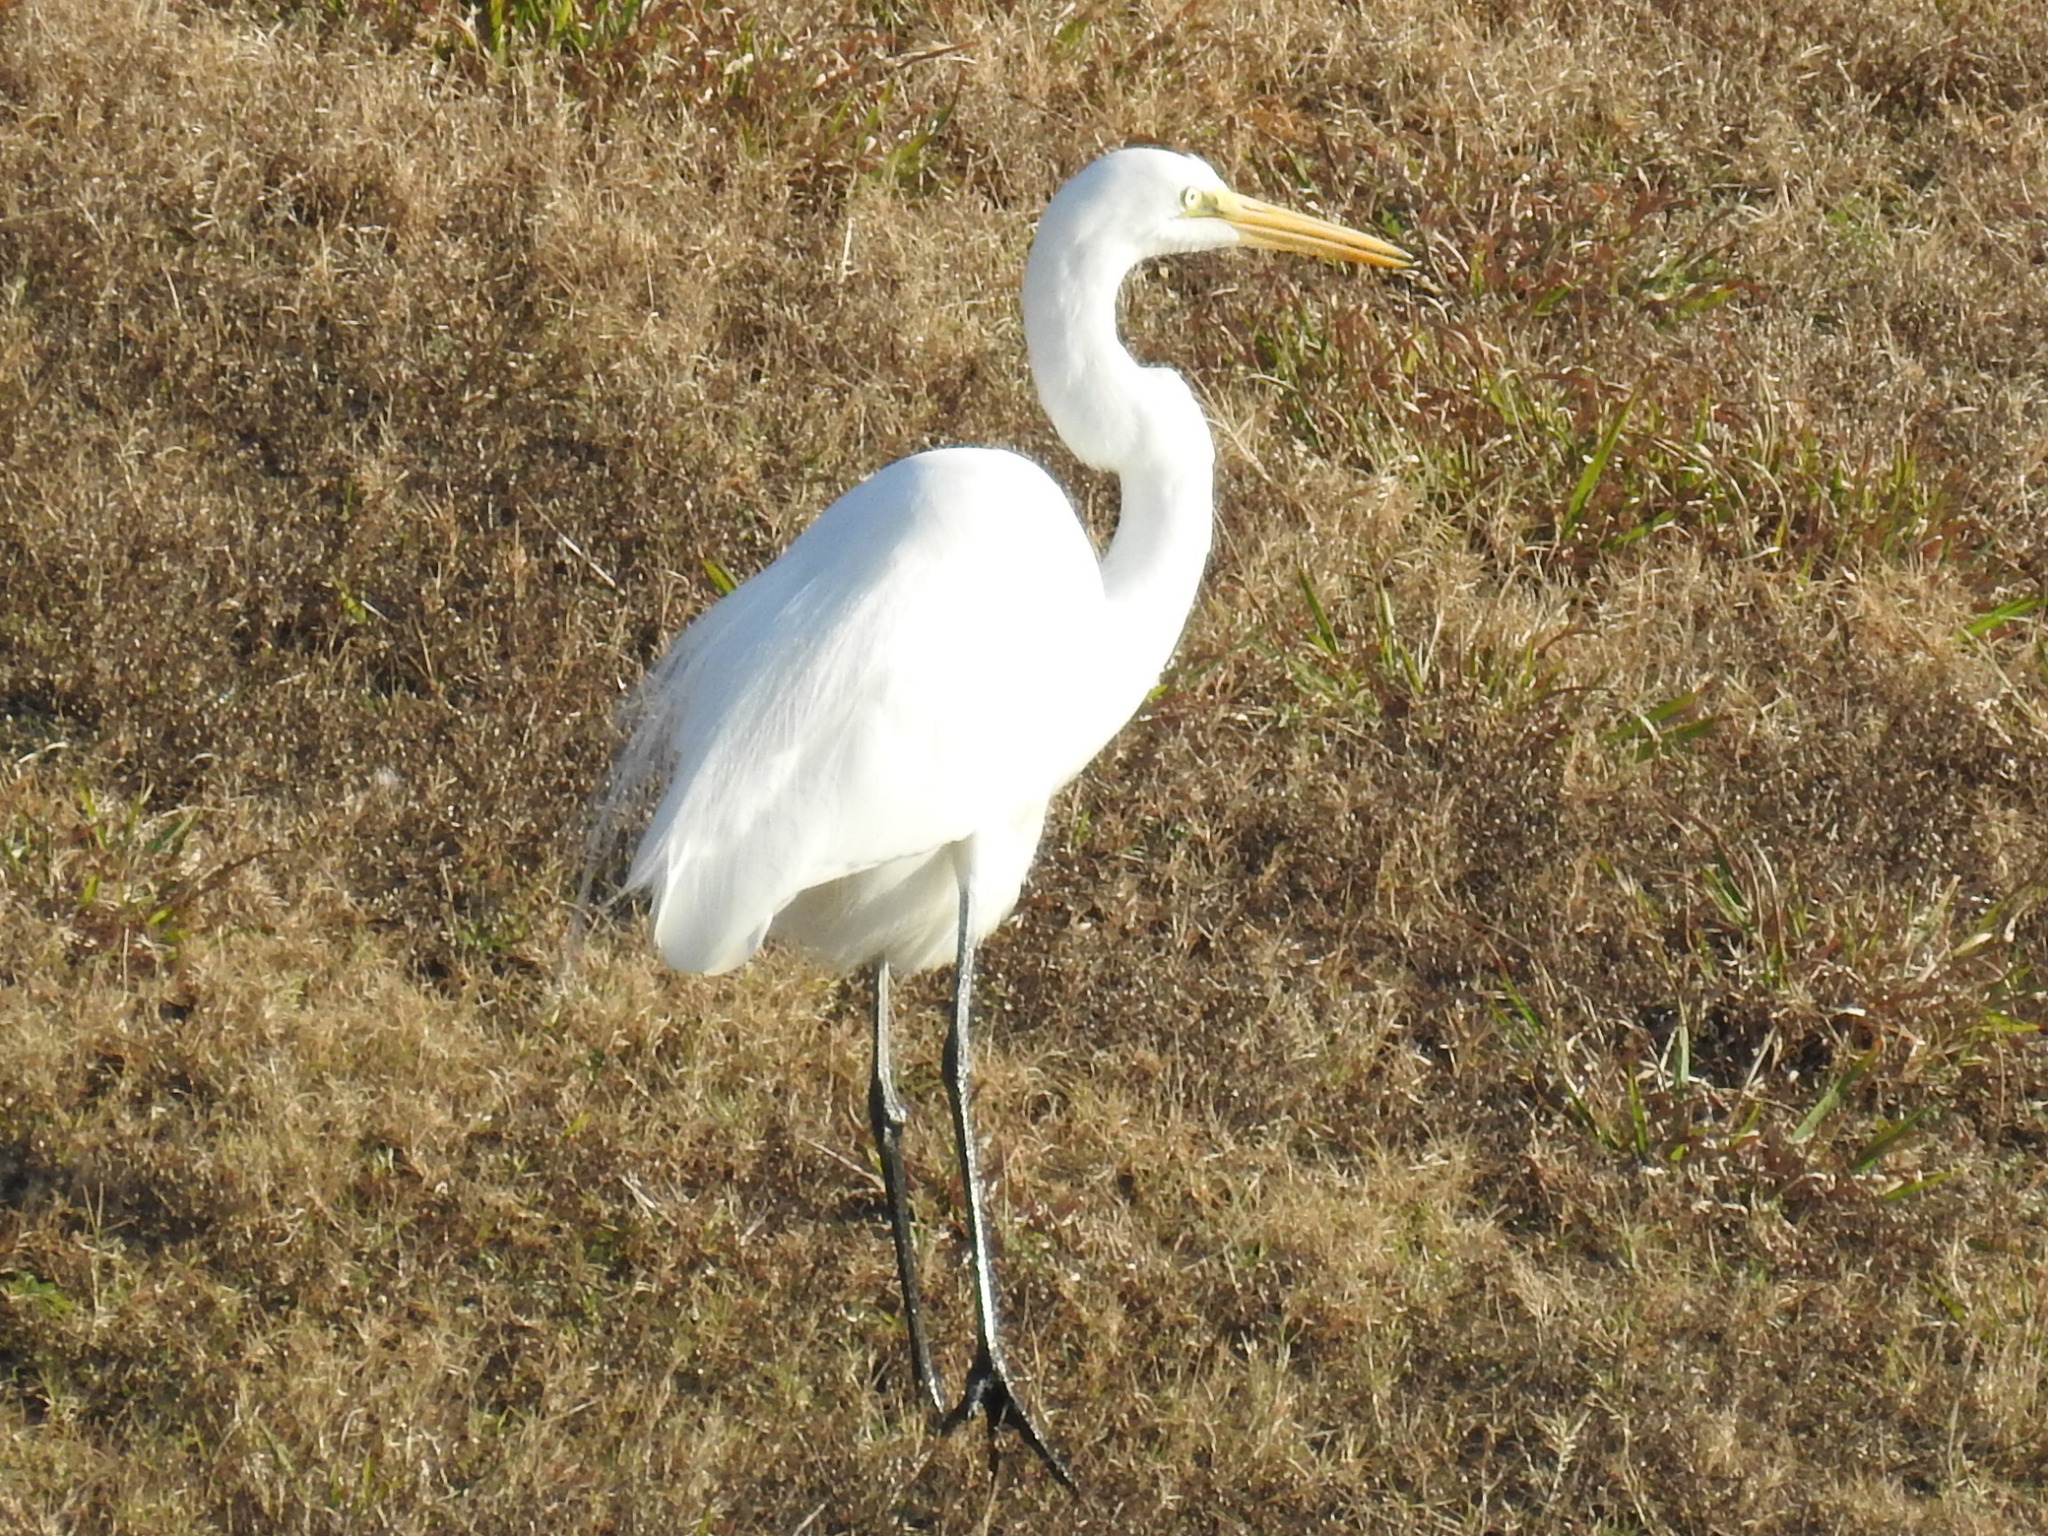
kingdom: Animalia
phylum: Chordata
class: Aves
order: Pelecaniformes
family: Ardeidae
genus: Ardea
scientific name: Ardea alba
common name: Great egret
